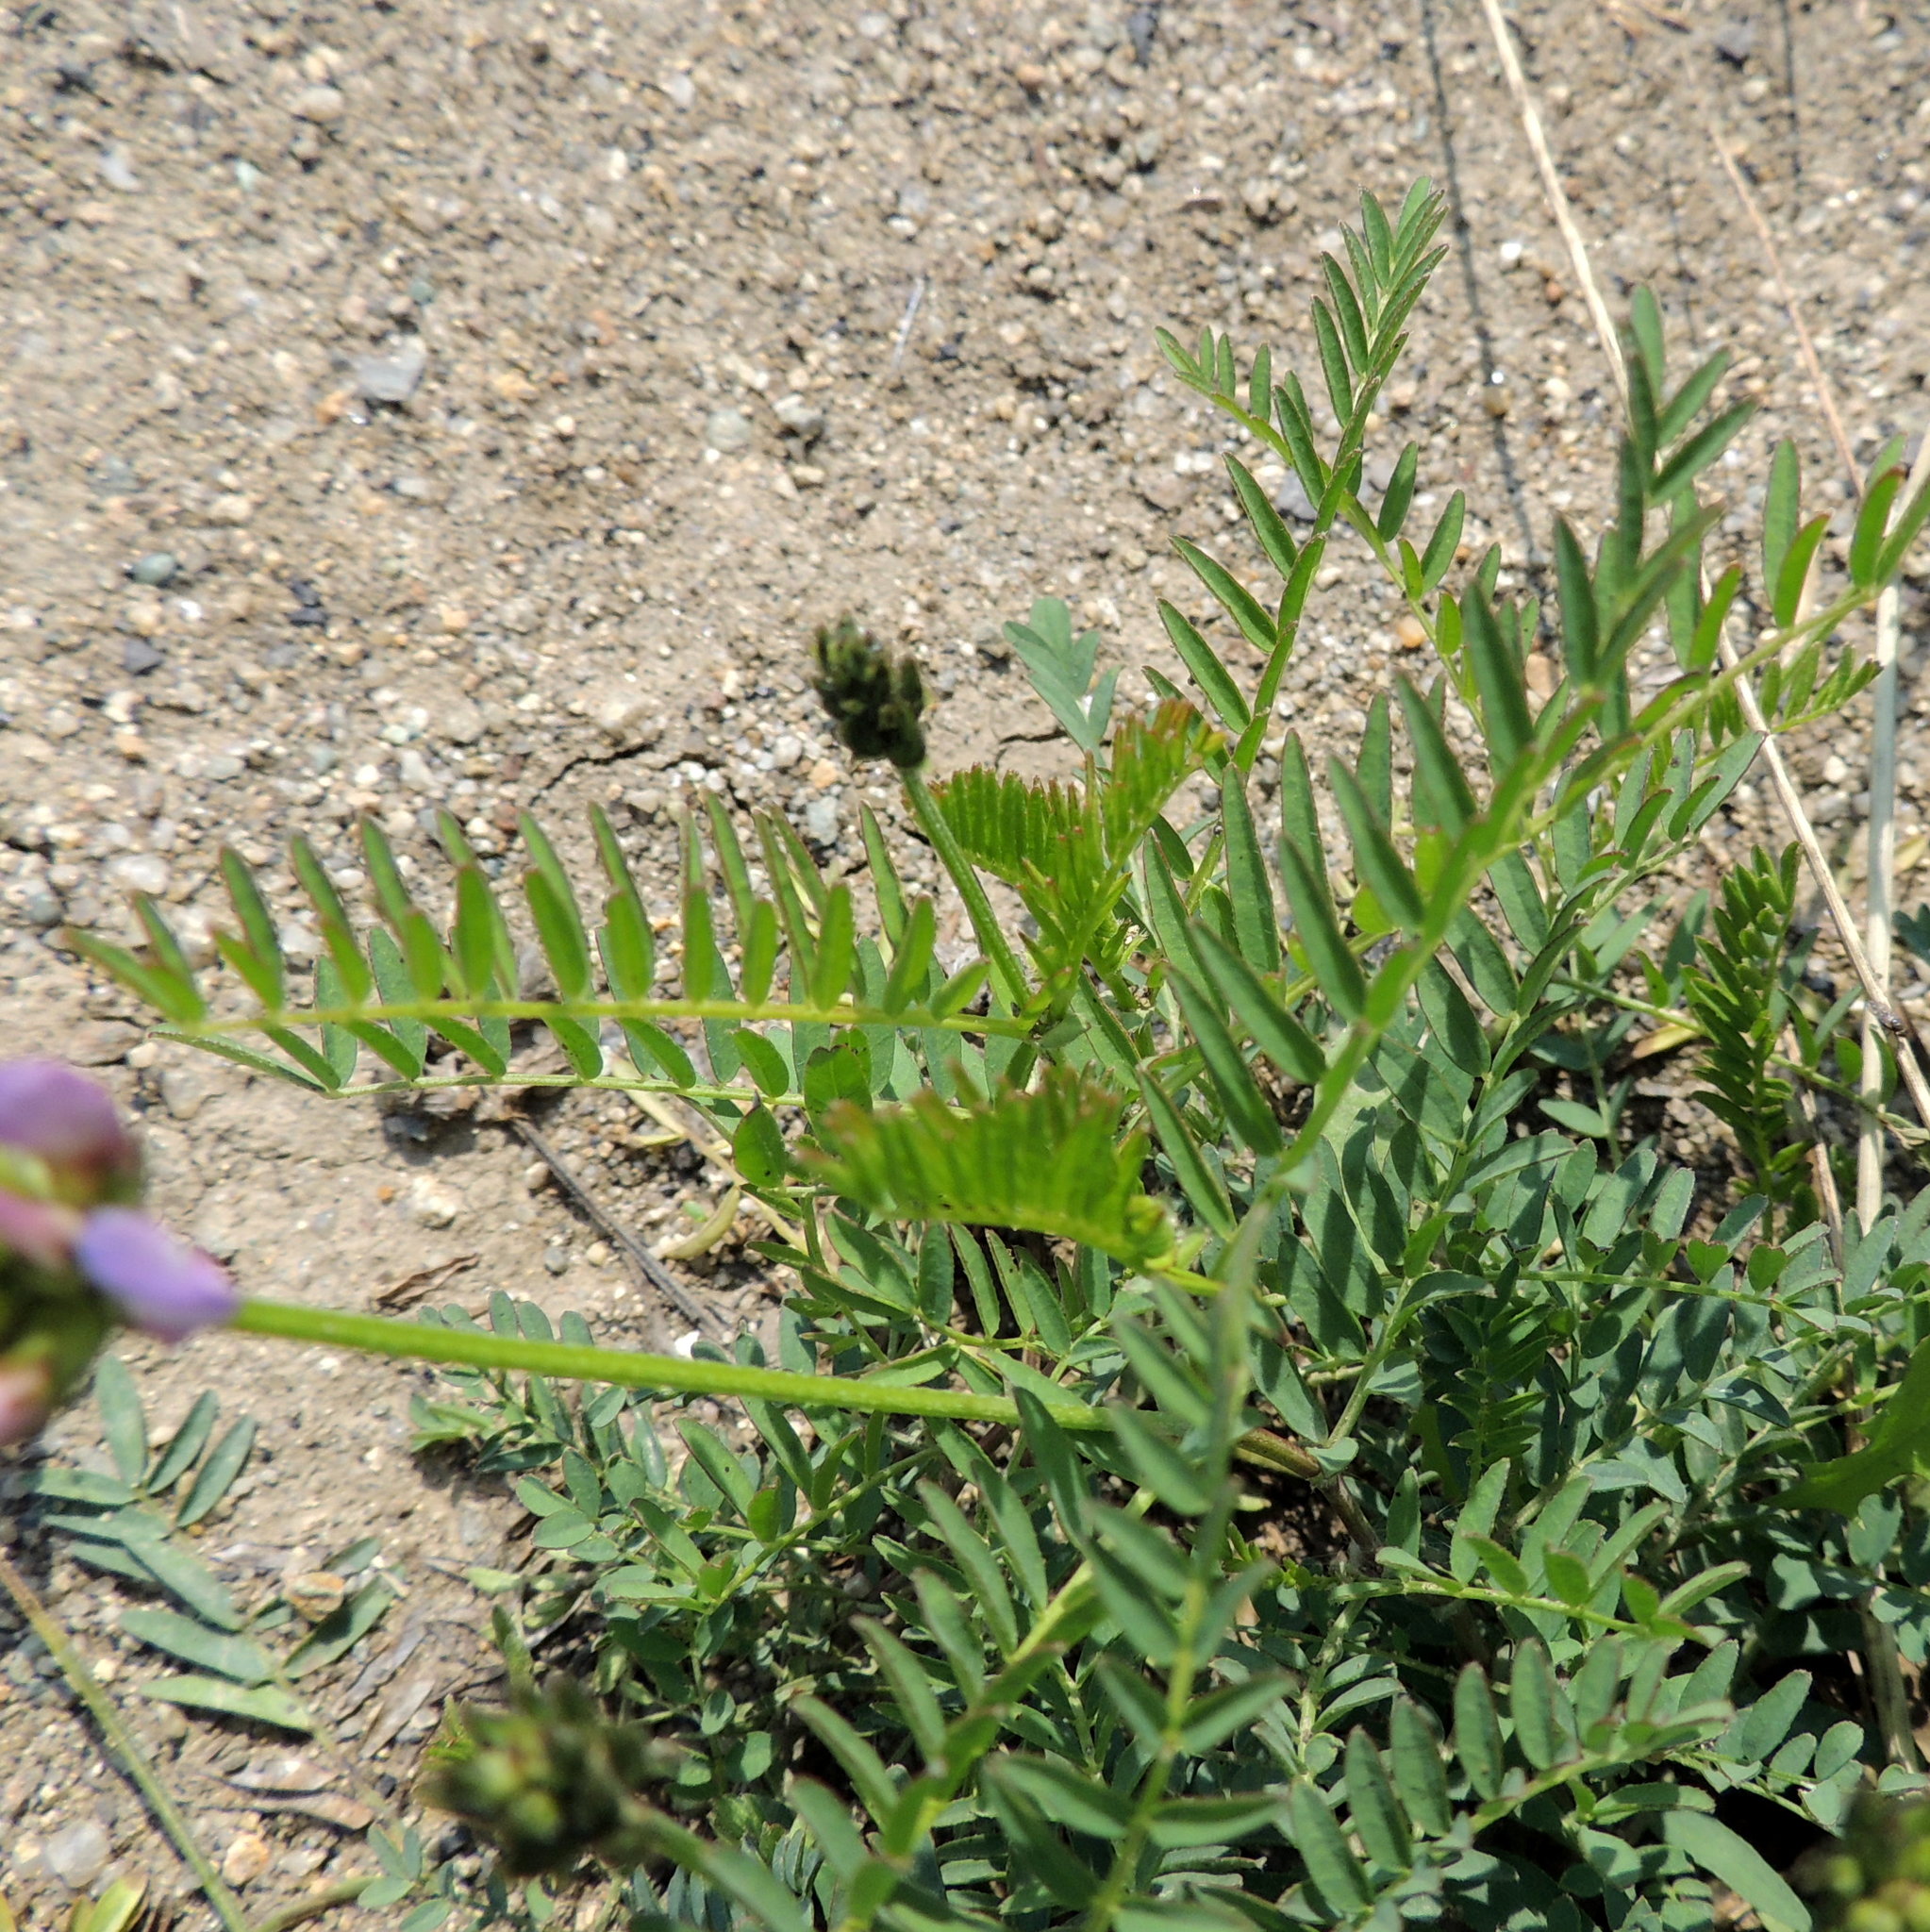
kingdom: Plantae
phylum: Tracheophyta
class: Magnoliopsida
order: Fabales
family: Fabaceae
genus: Astragalus
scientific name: Astragalus agrestis
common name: Field milk-vetch
